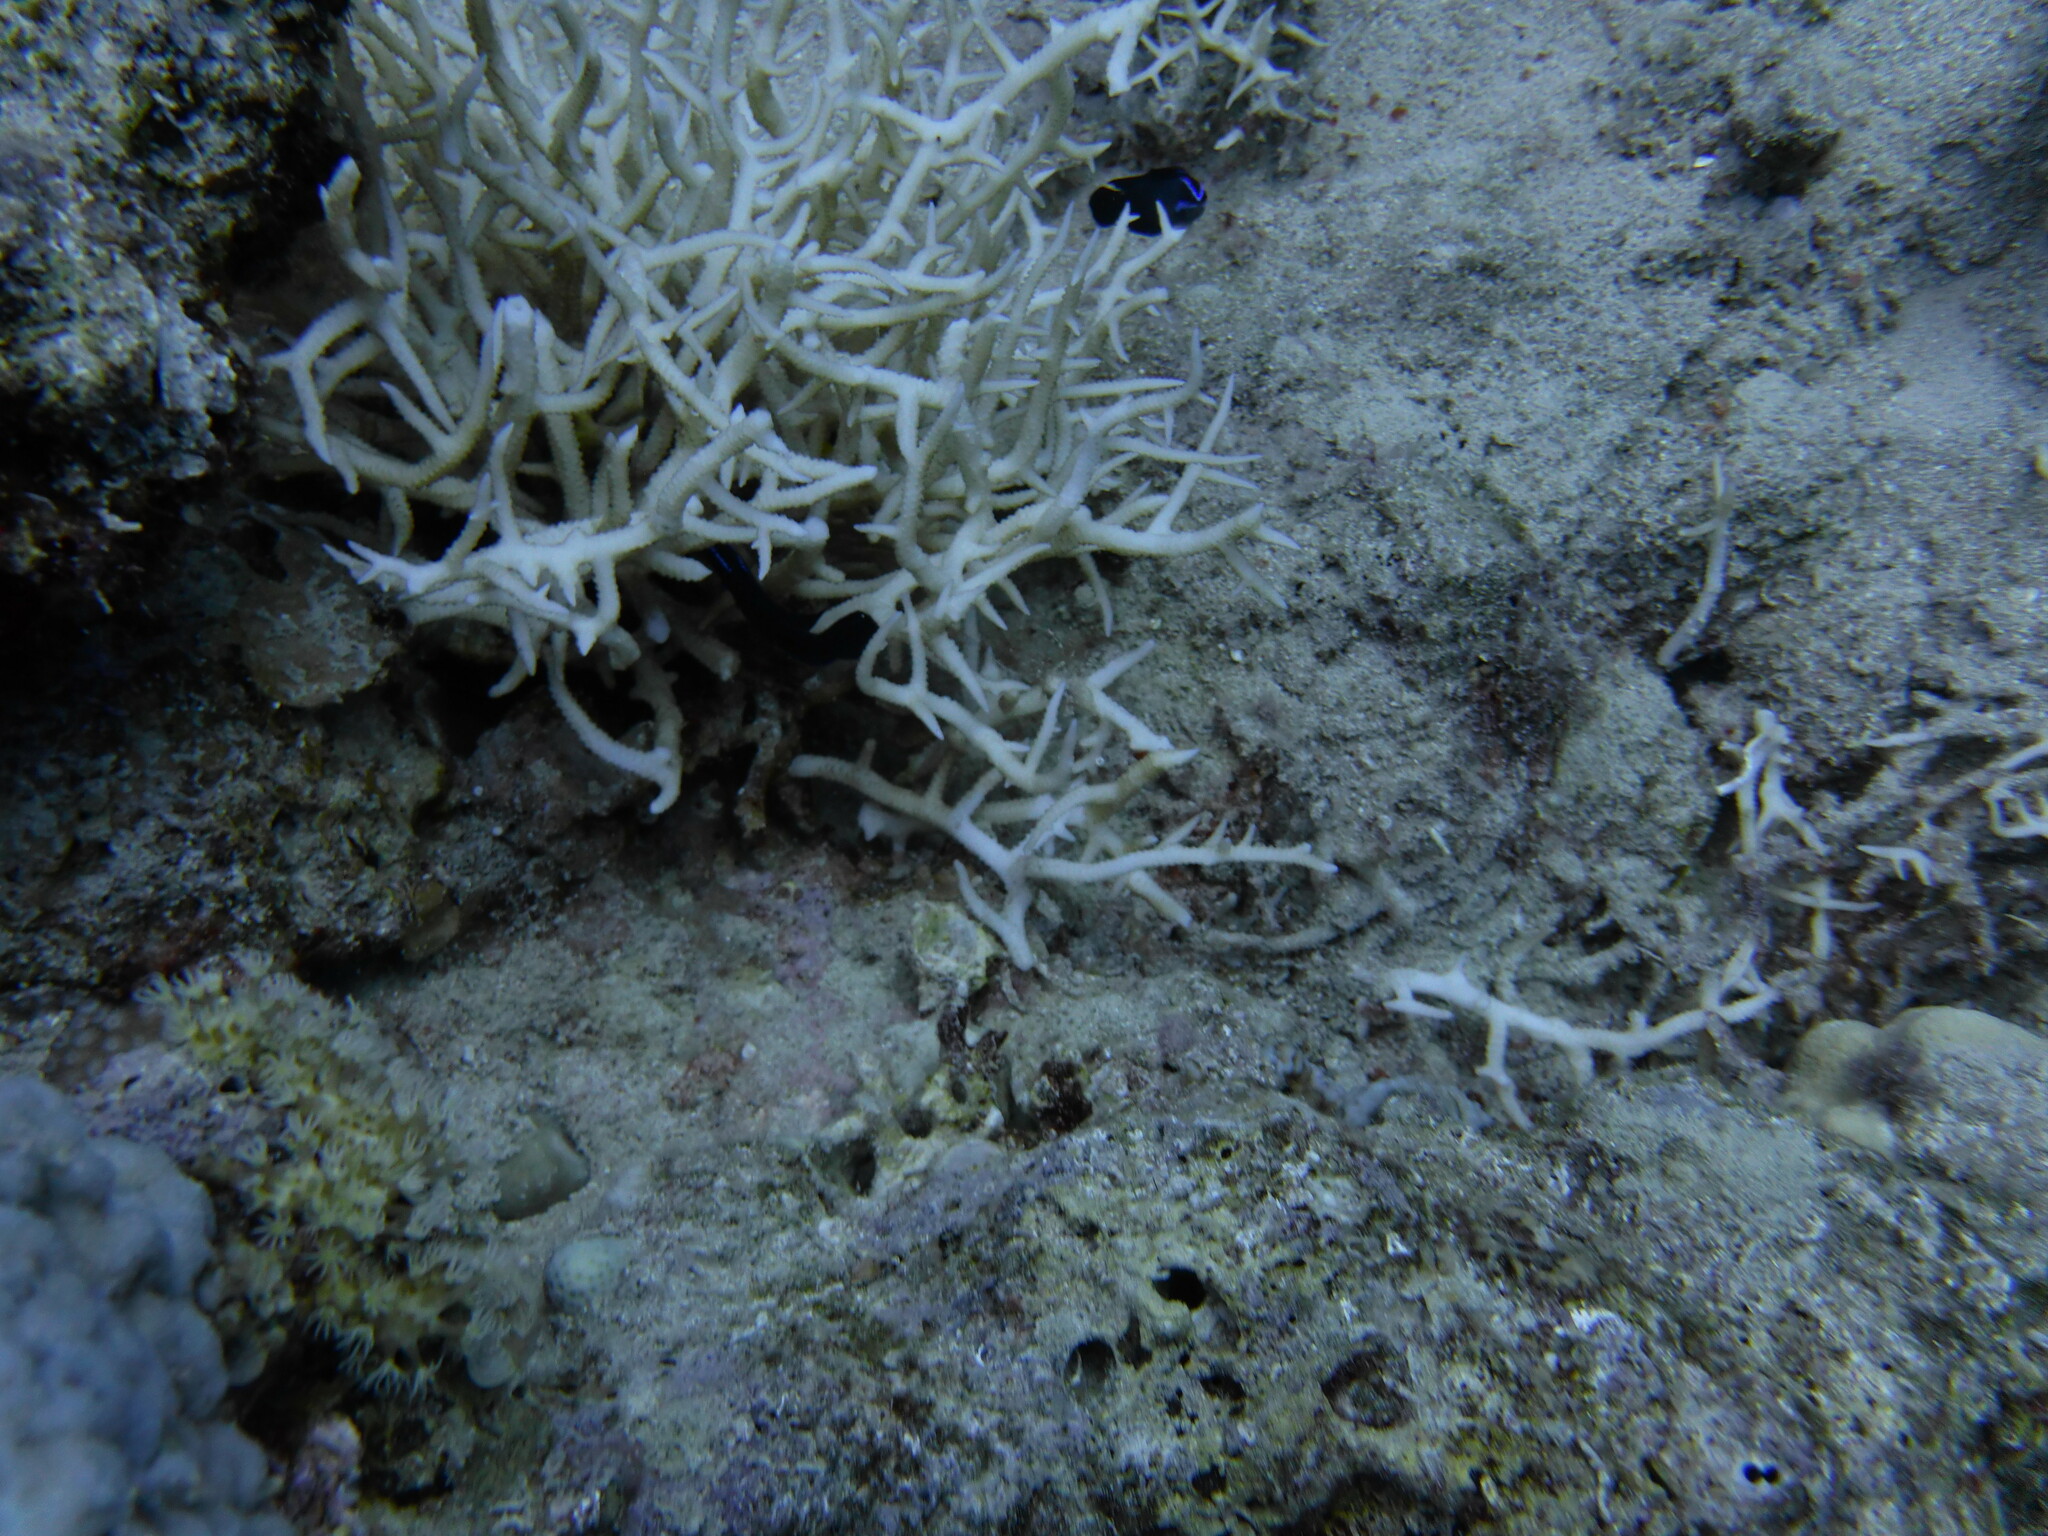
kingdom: Animalia
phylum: Chordata
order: Perciformes
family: Pseudochromidae
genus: Pseudochromis
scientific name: Pseudochromis springeri
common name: Blue-striped dottyback
